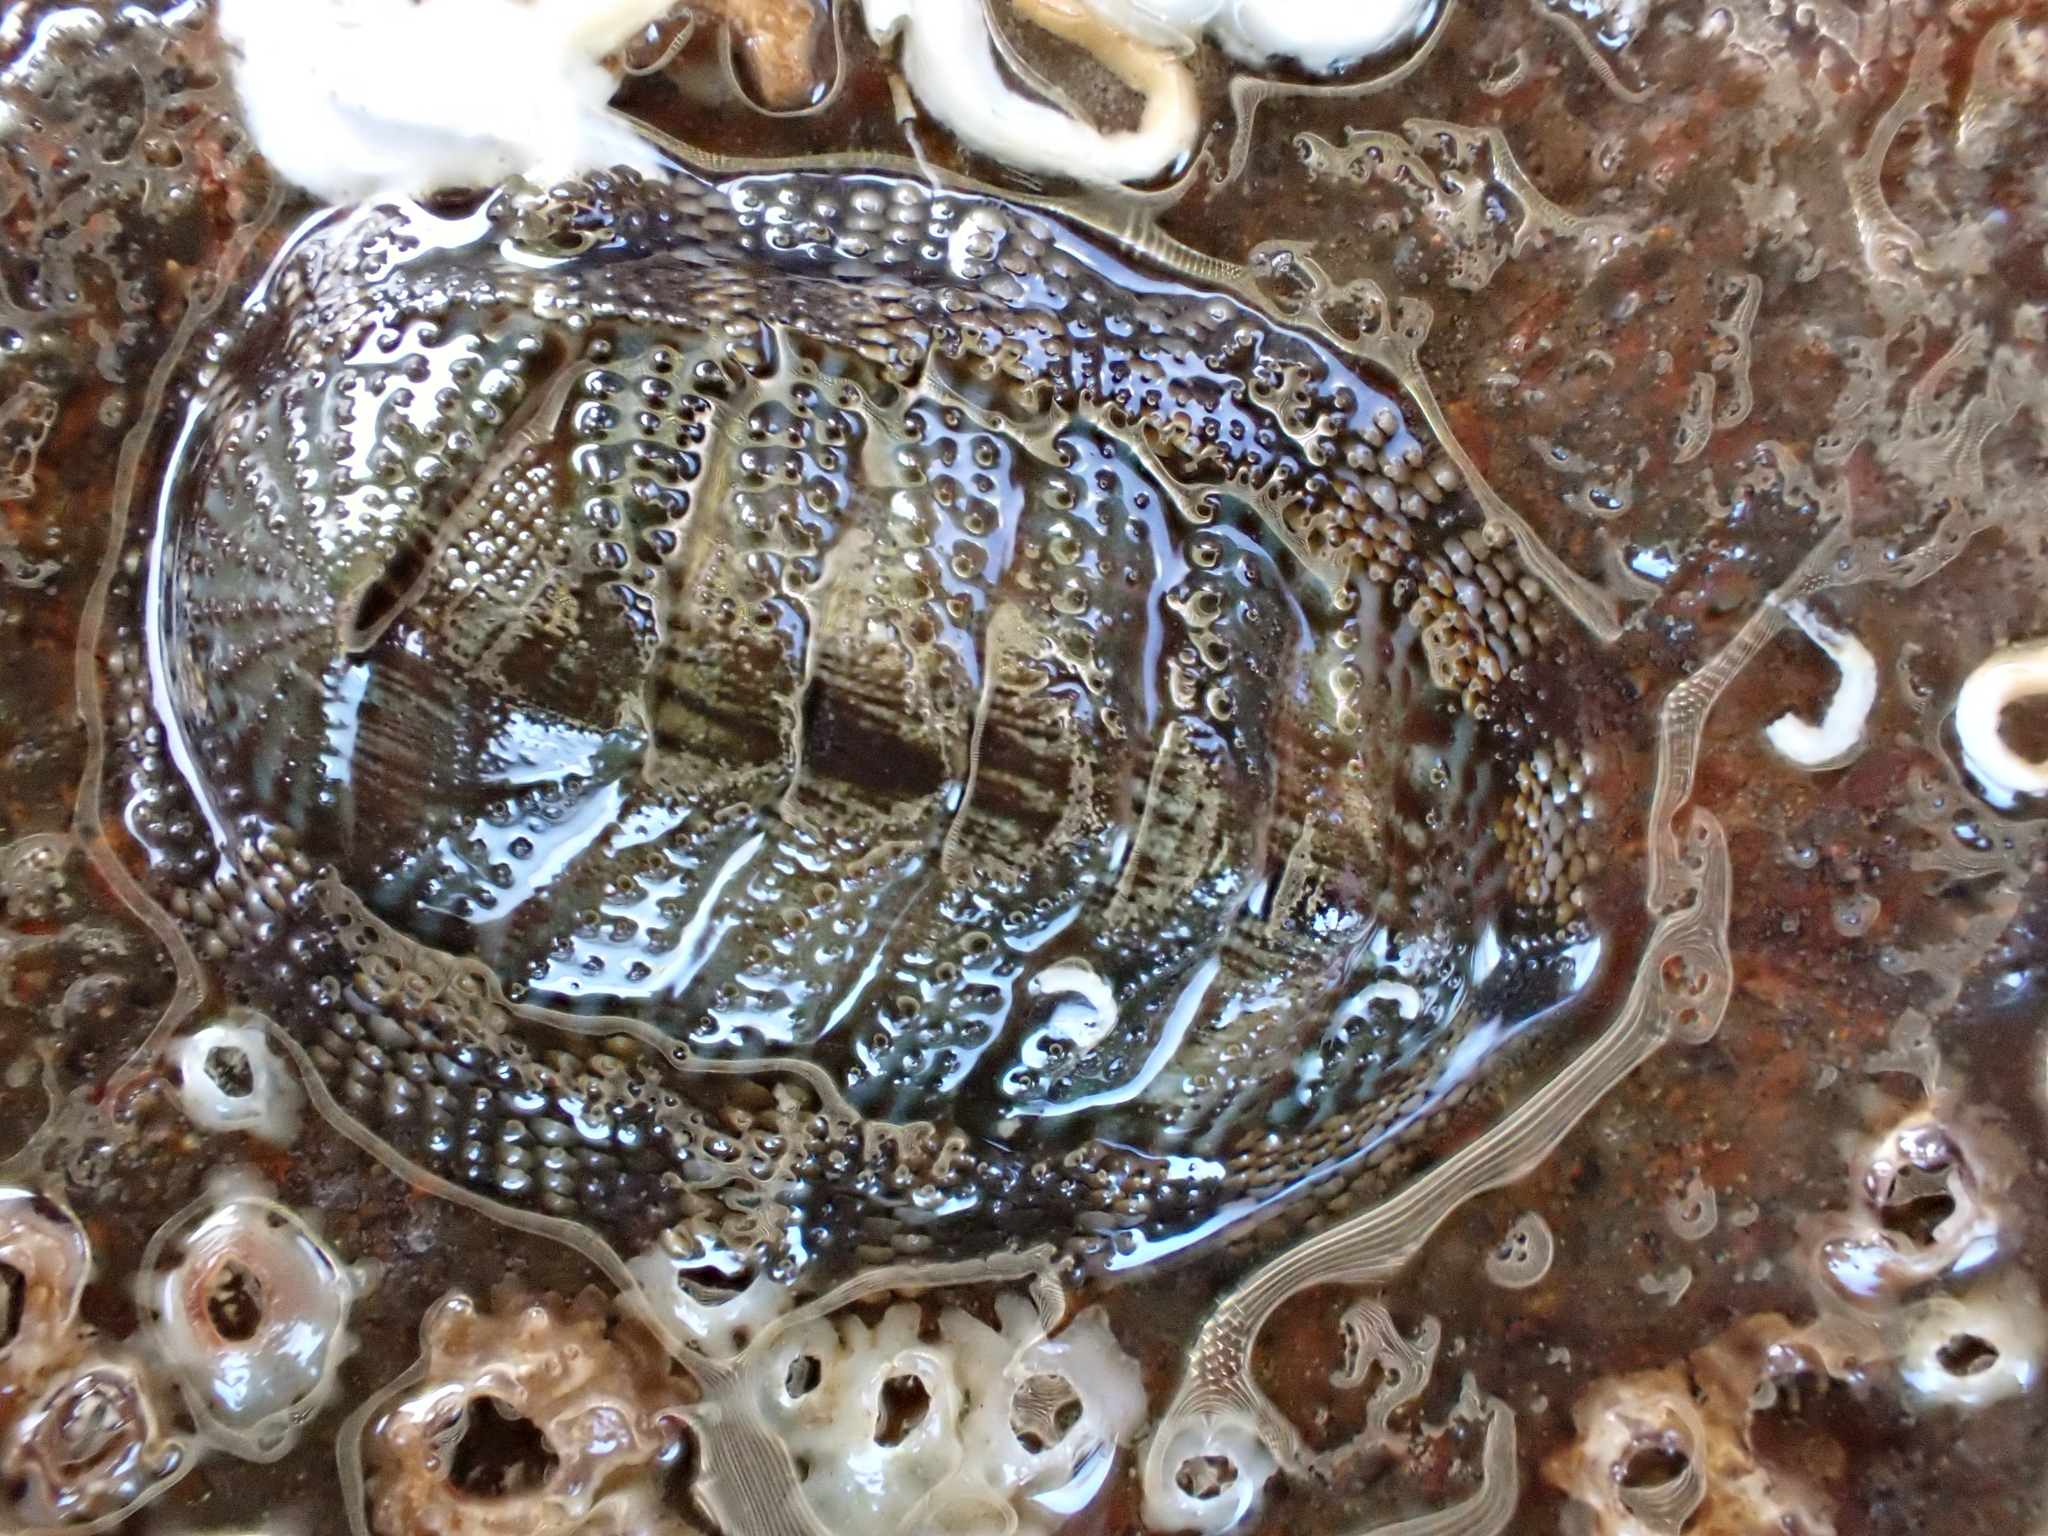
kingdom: Animalia
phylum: Mollusca
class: Polyplacophora
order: Chitonida
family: Chitonidae
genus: Sypharochiton
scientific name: Sypharochiton pelliserpentis
